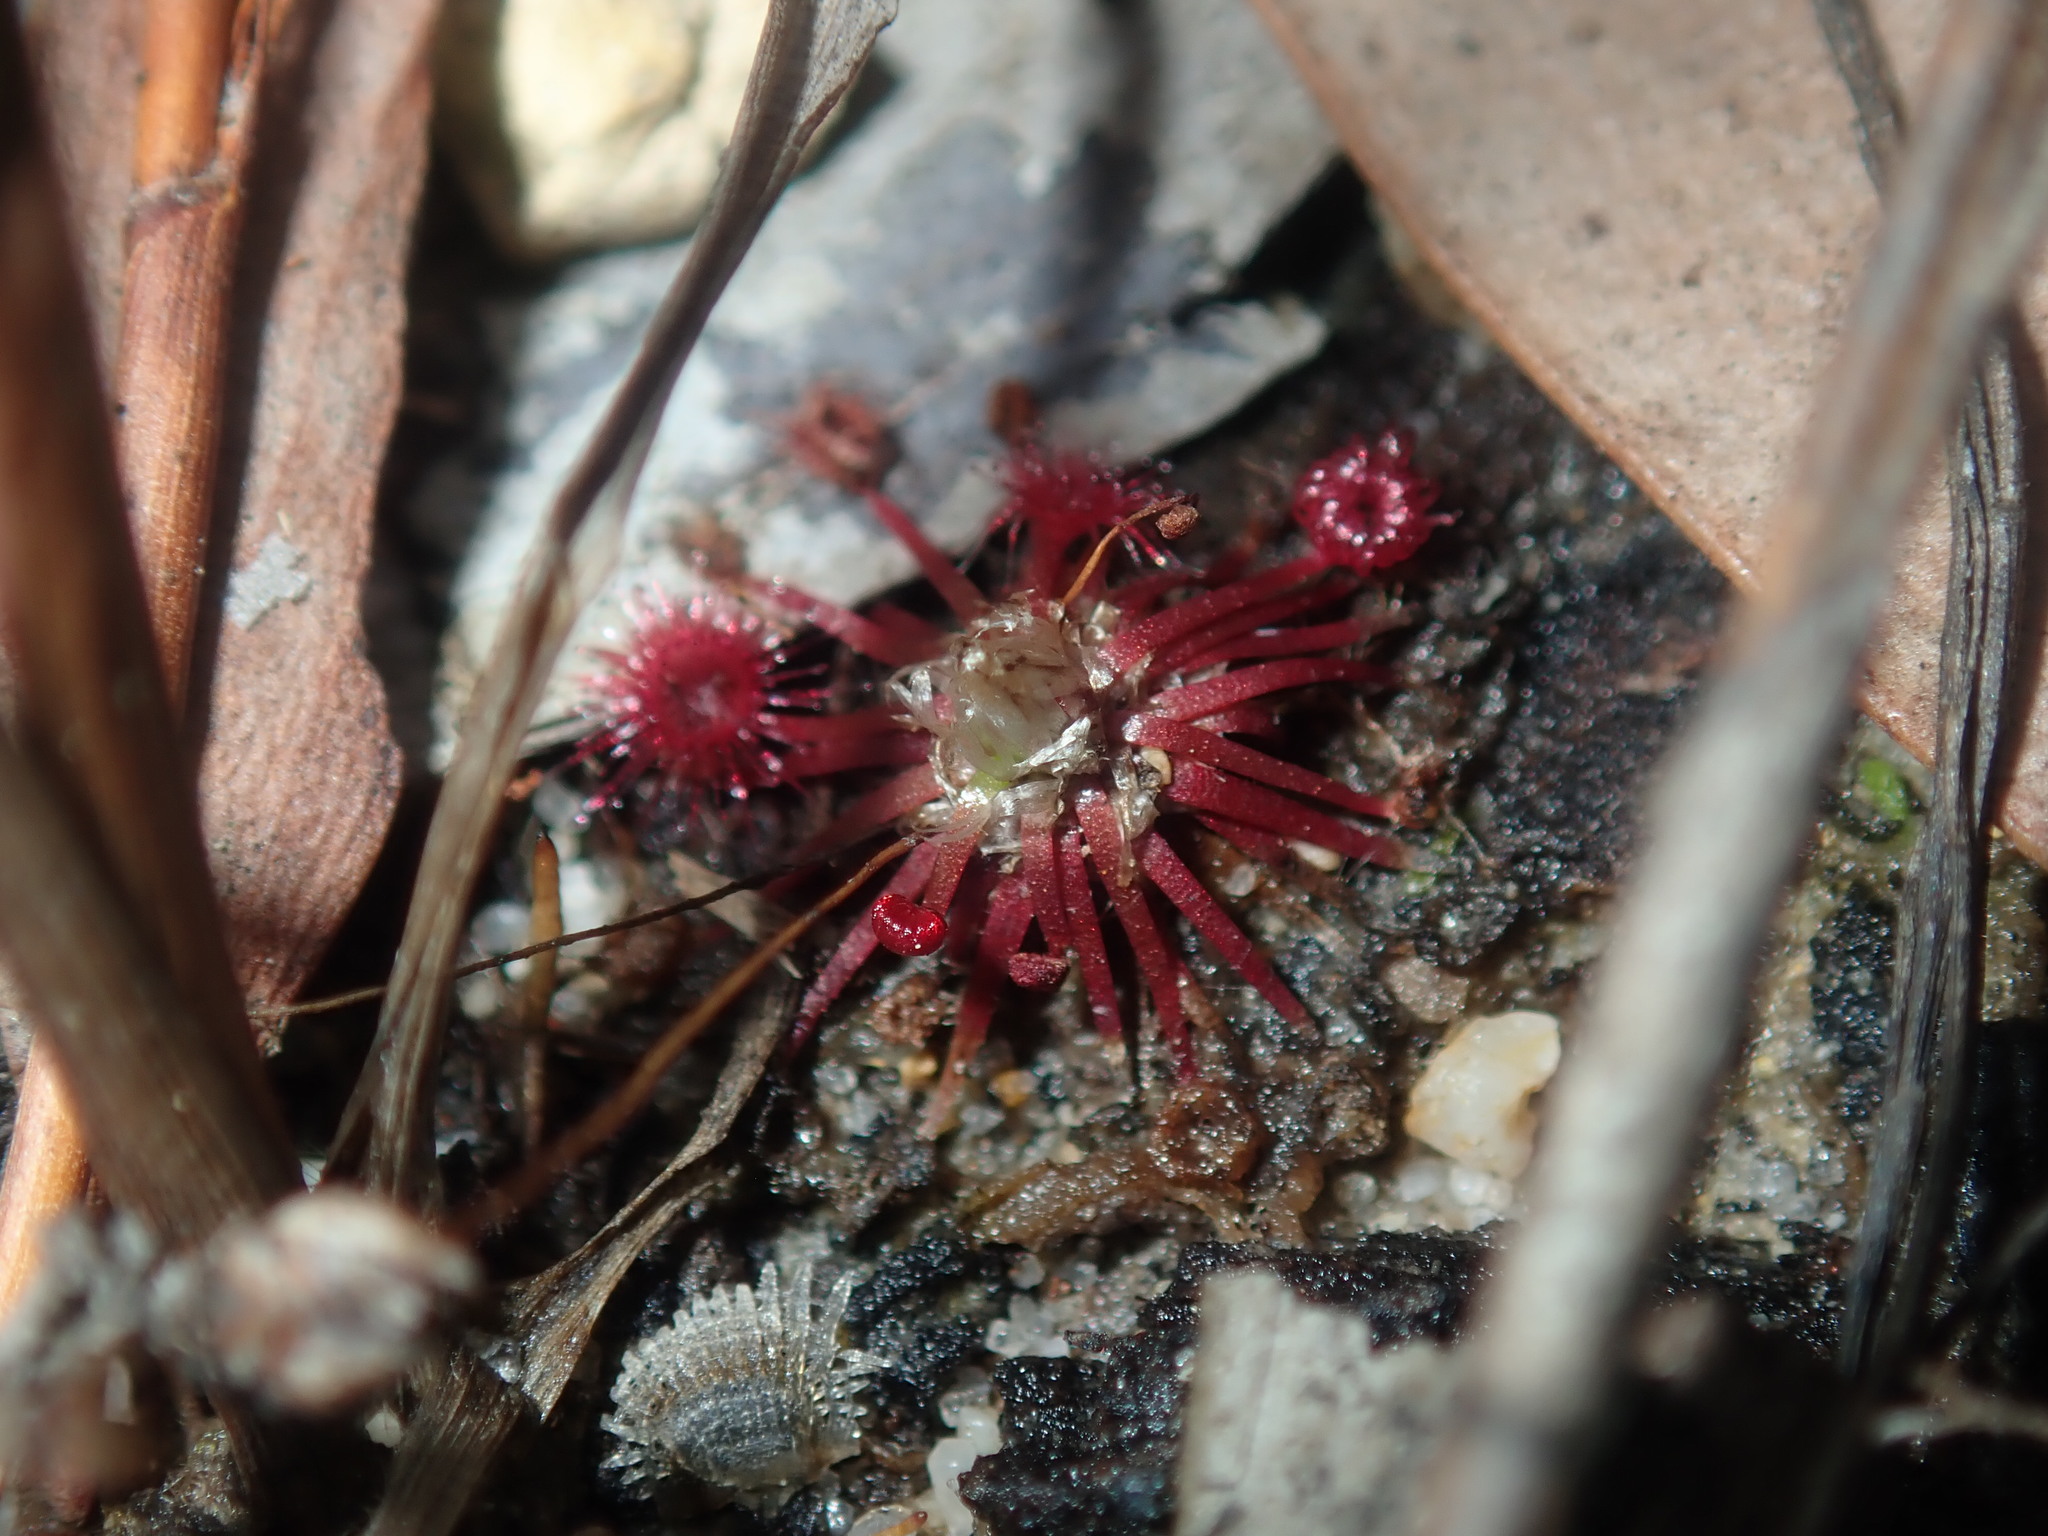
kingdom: Plantae
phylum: Tracheophyta
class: Magnoliopsida
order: Caryophyllales
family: Droseraceae
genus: Drosera
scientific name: Drosera pygmaea
